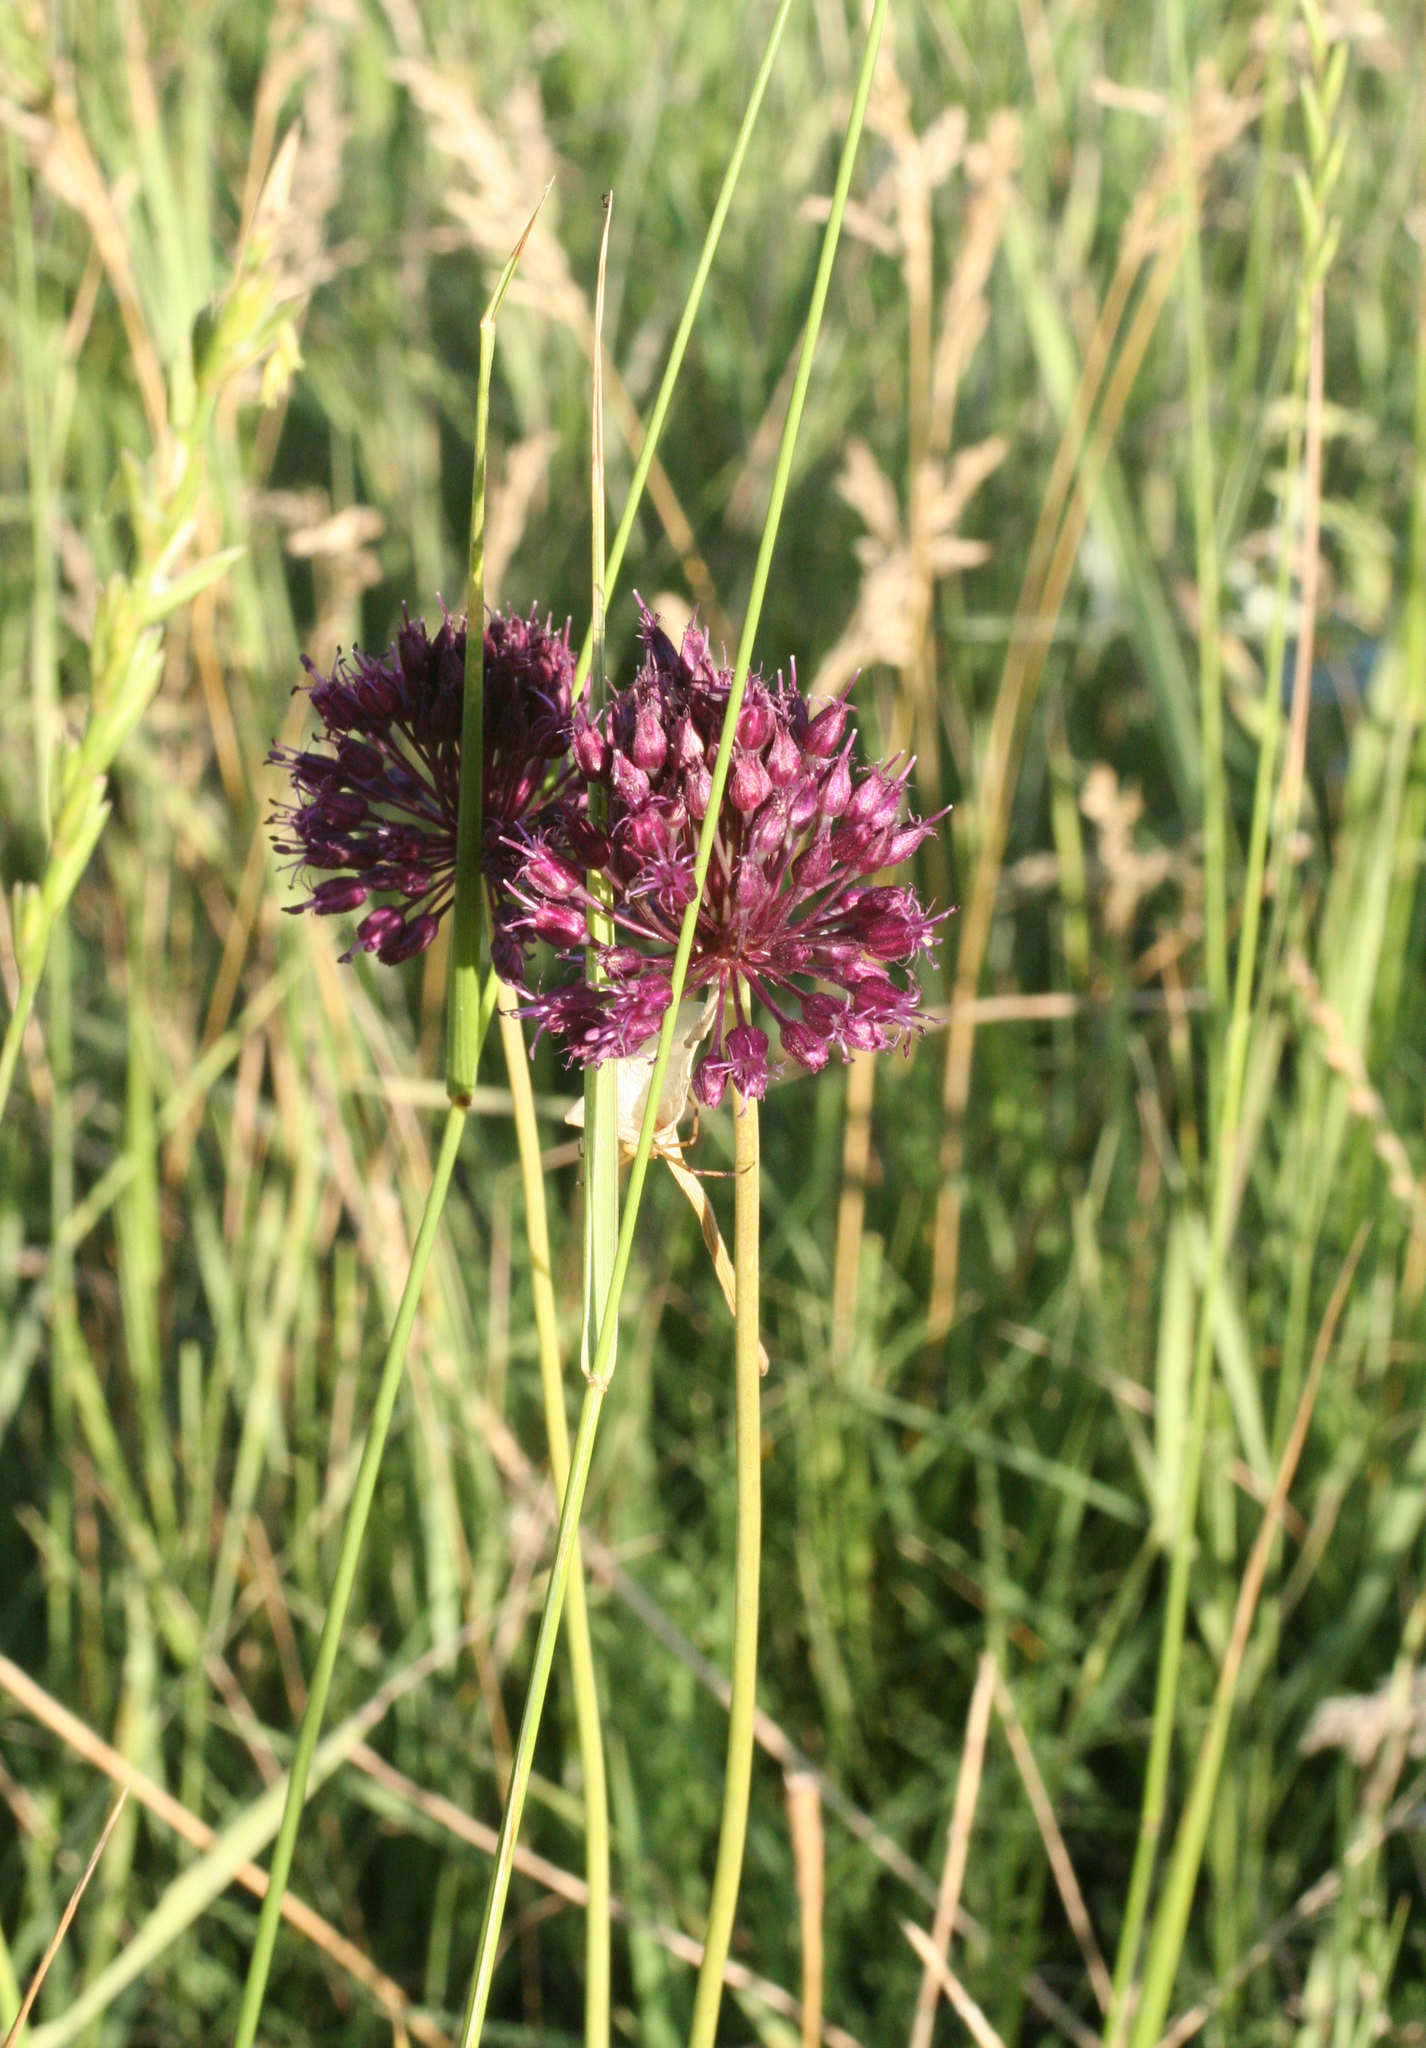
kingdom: Plantae
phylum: Tracheophyta
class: Liliopsida
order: Asparagales
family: Amaryllidaceae
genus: Allium
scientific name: Allium atroviolaceum
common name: Broadleaf wild leek
